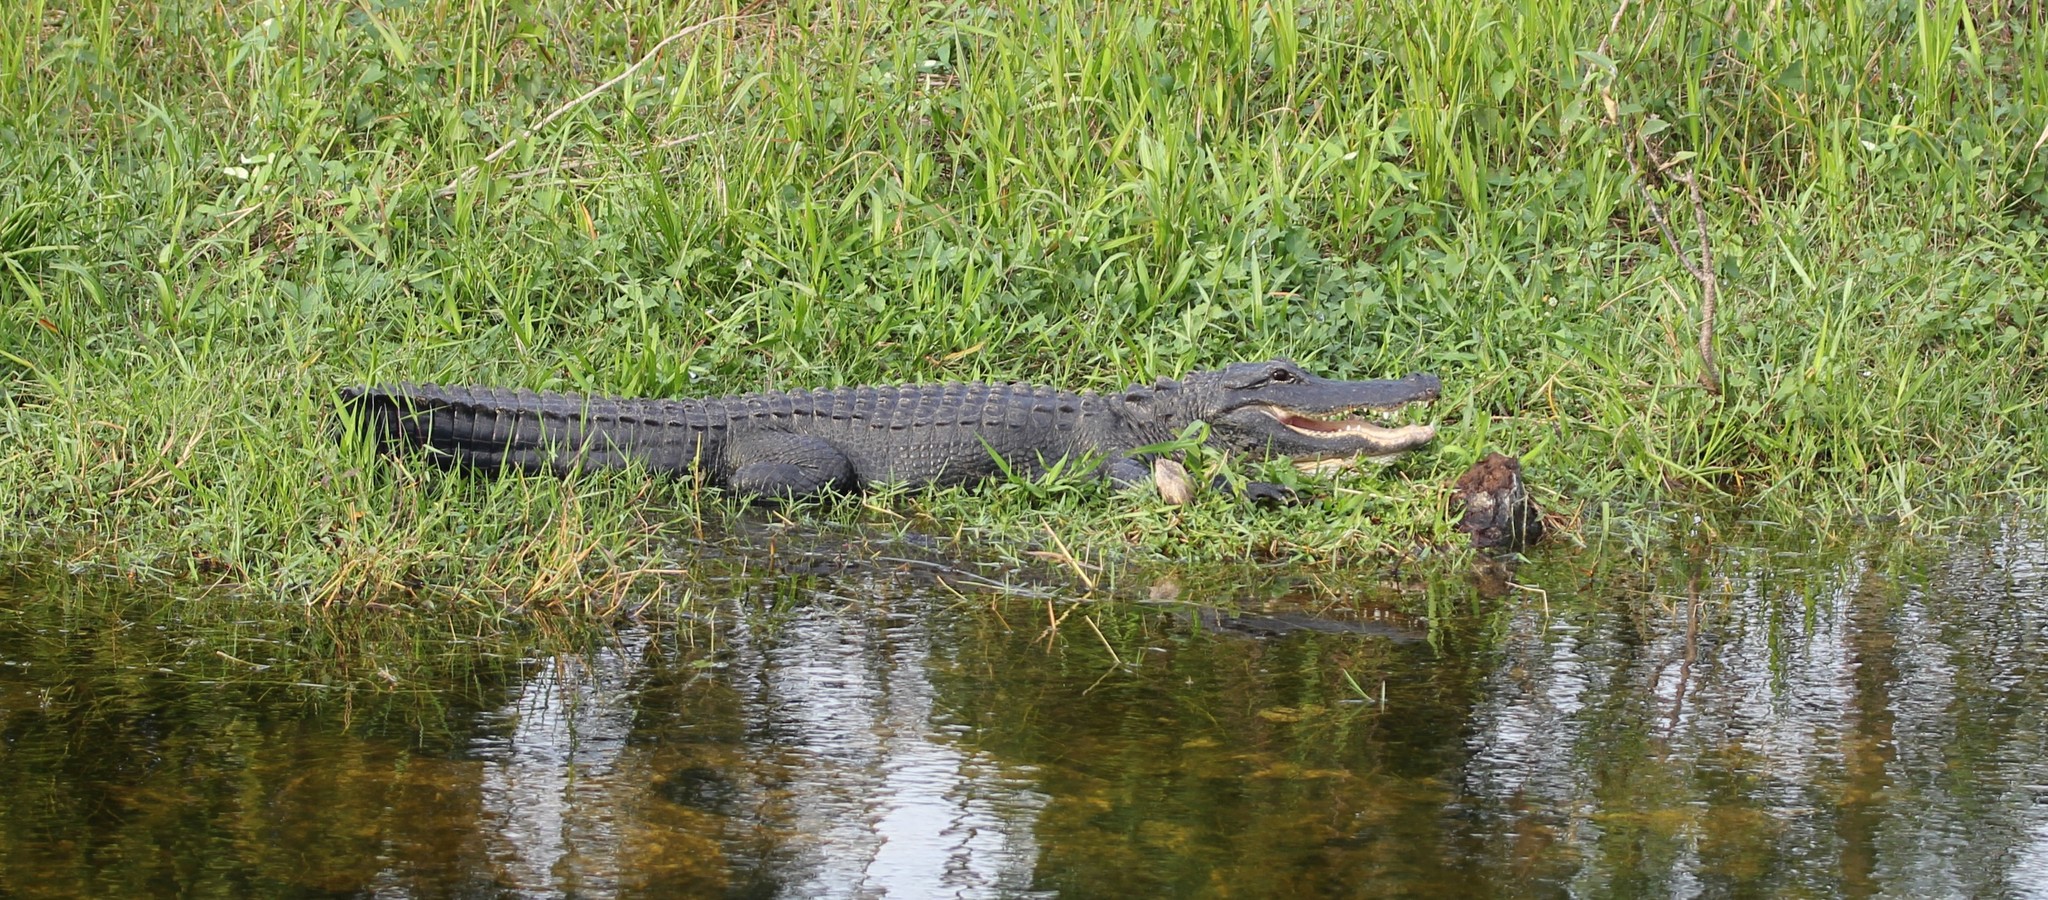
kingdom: Animalia
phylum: Chordata
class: Crocodylia
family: Alligatoridae
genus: Alligator
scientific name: Alligator mississippiensis
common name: American alligator
